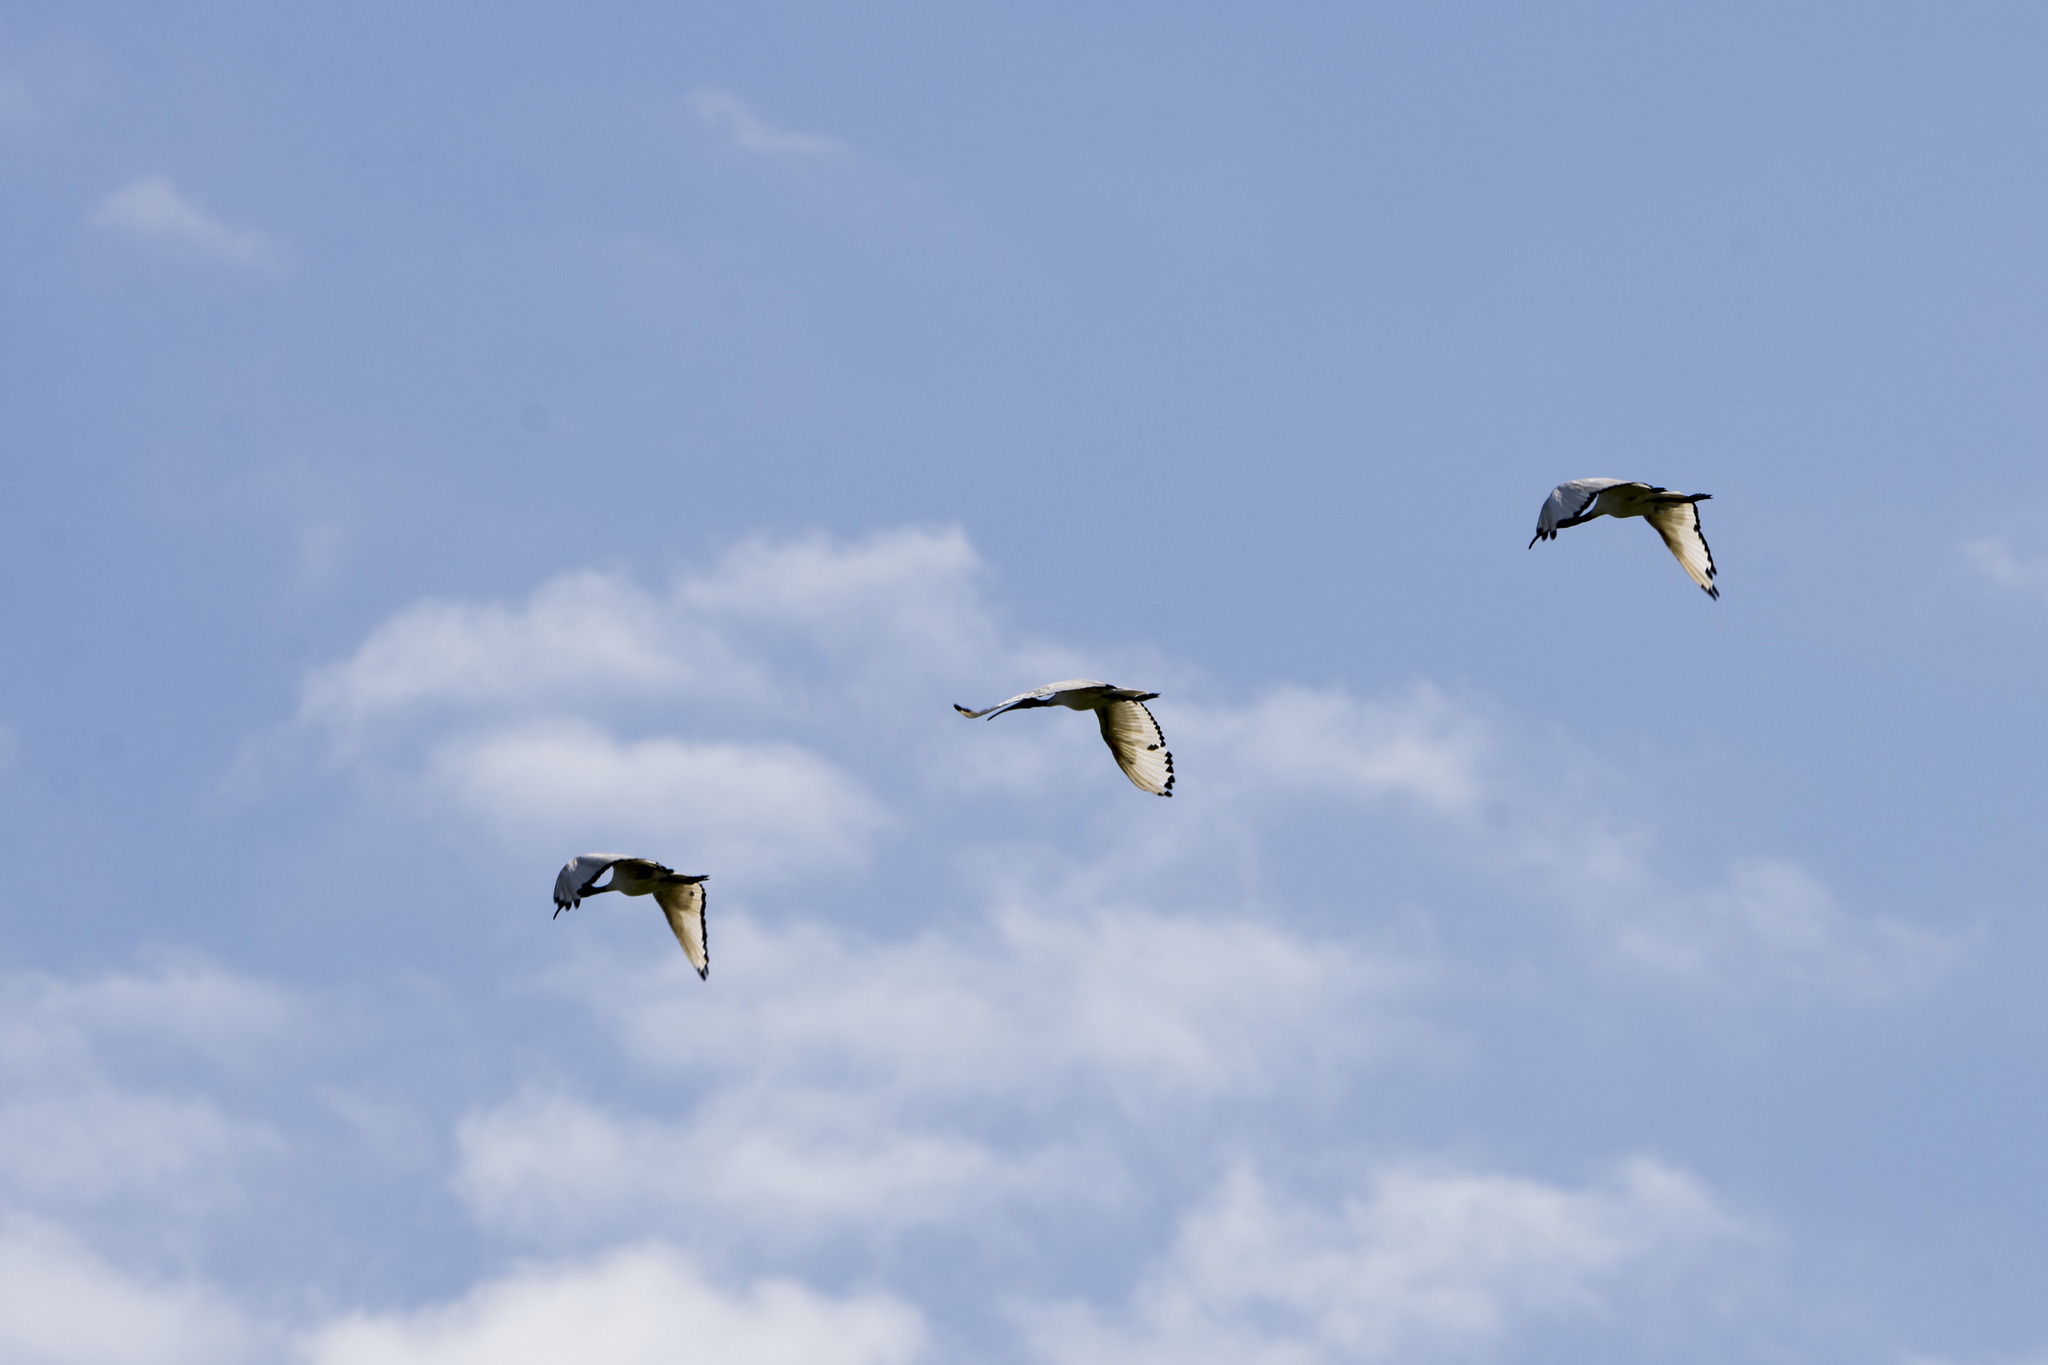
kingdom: Animalia
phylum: Chordata
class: Aves
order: Pelecaniformes
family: Threskiornithidae
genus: Threskiornis
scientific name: Threskiornis aethiopicus
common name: Sacred ibis
